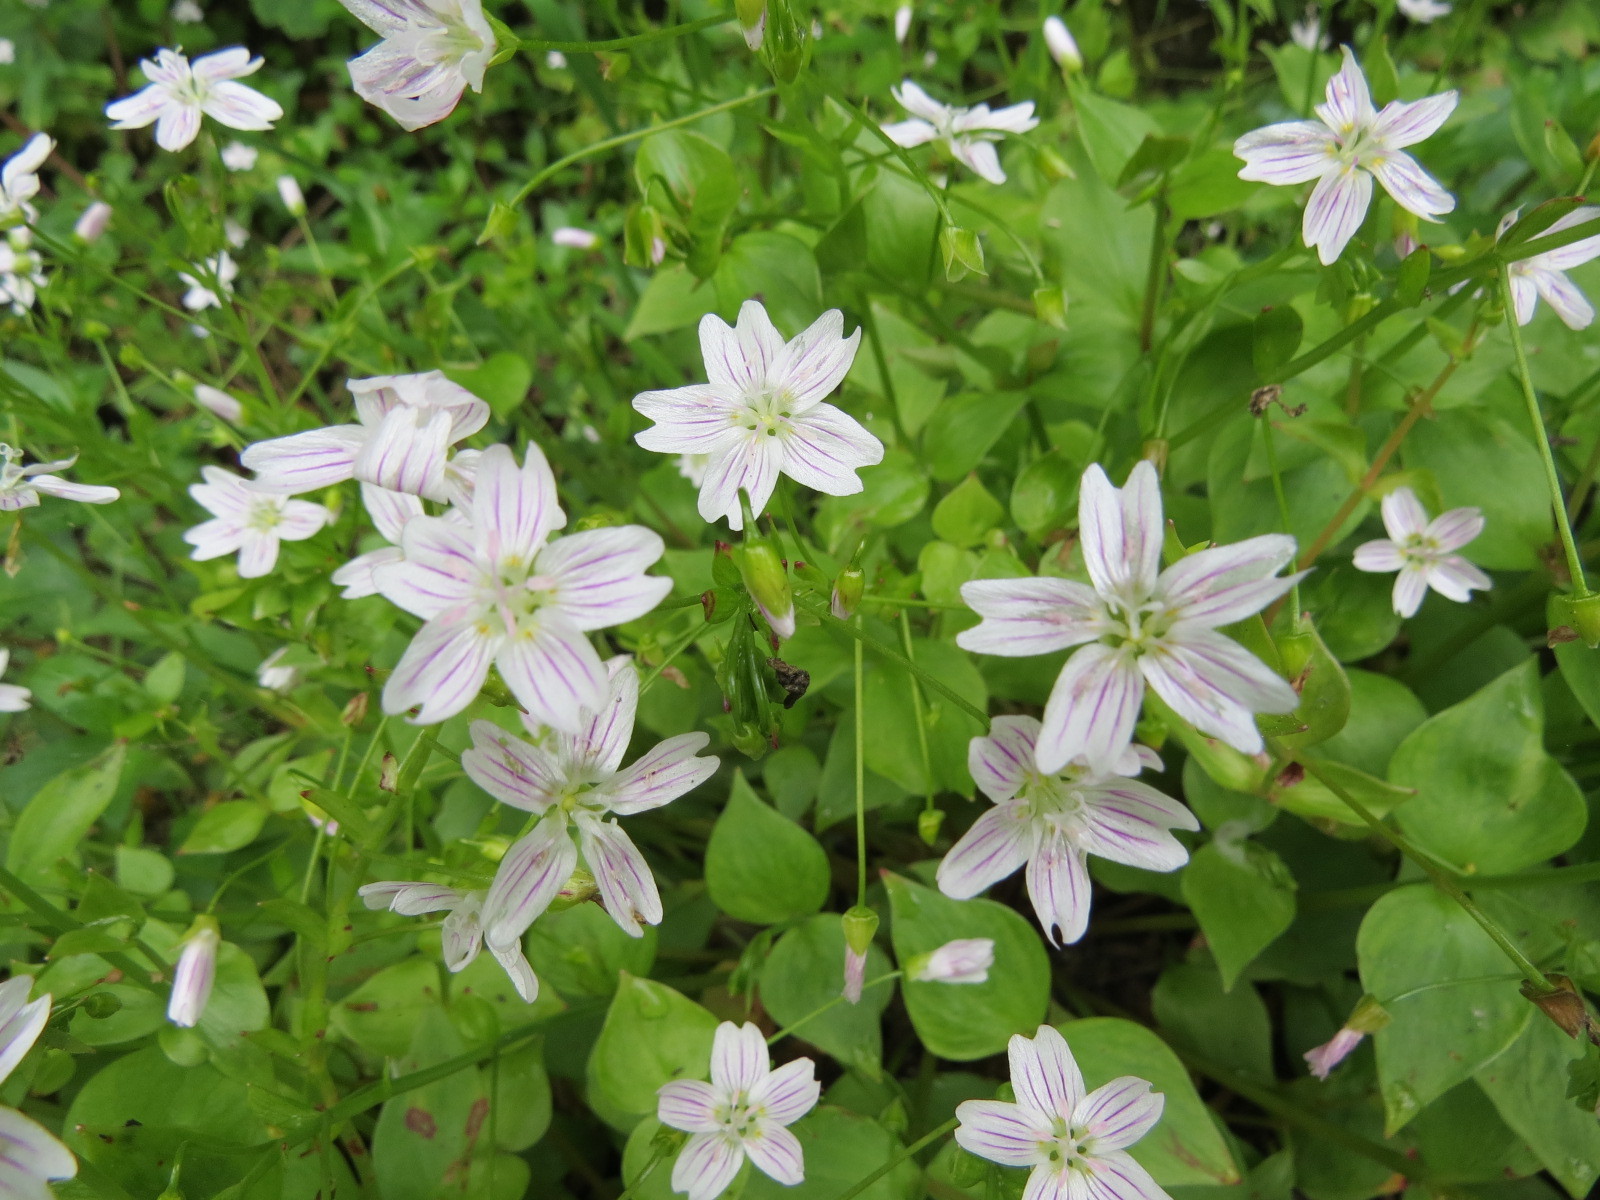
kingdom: Plantae
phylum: Tracheophyta
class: Magnoliopsida
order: Caryophyllales
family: Montiaceae
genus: Claytonia
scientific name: Claytonia sibirica
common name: Pink purslane
